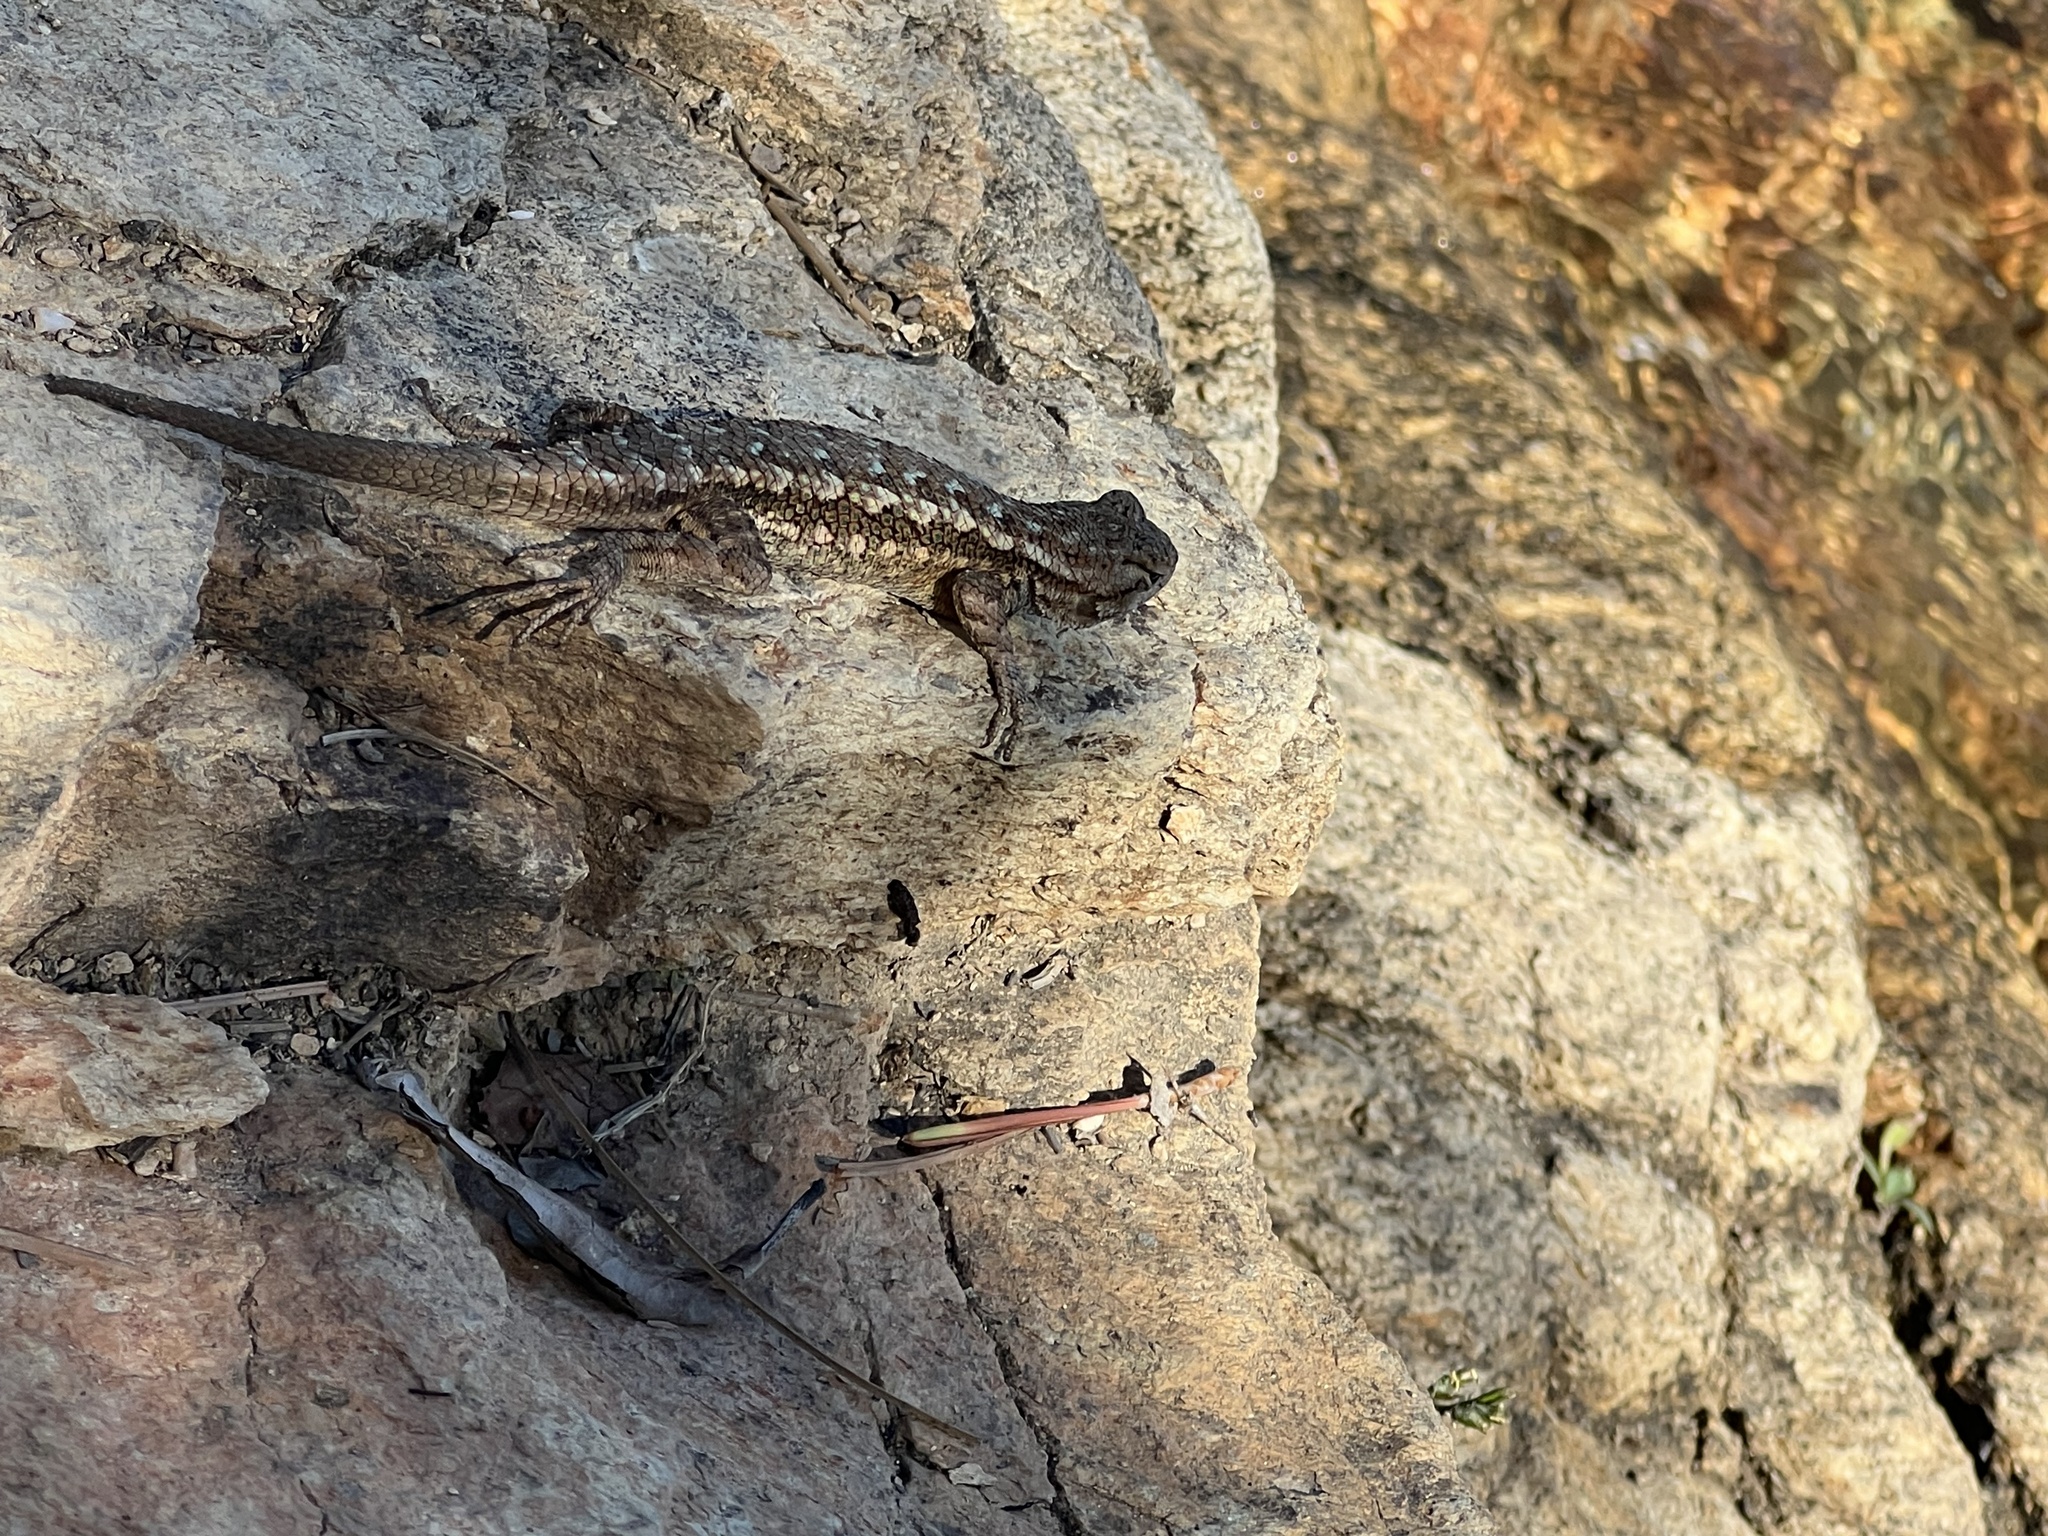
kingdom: Animalia
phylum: Chordata
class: Squamata
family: Phrynosomatidae
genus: Sceloporus
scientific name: Sceloporus occidentalis
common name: Western fence lizard
